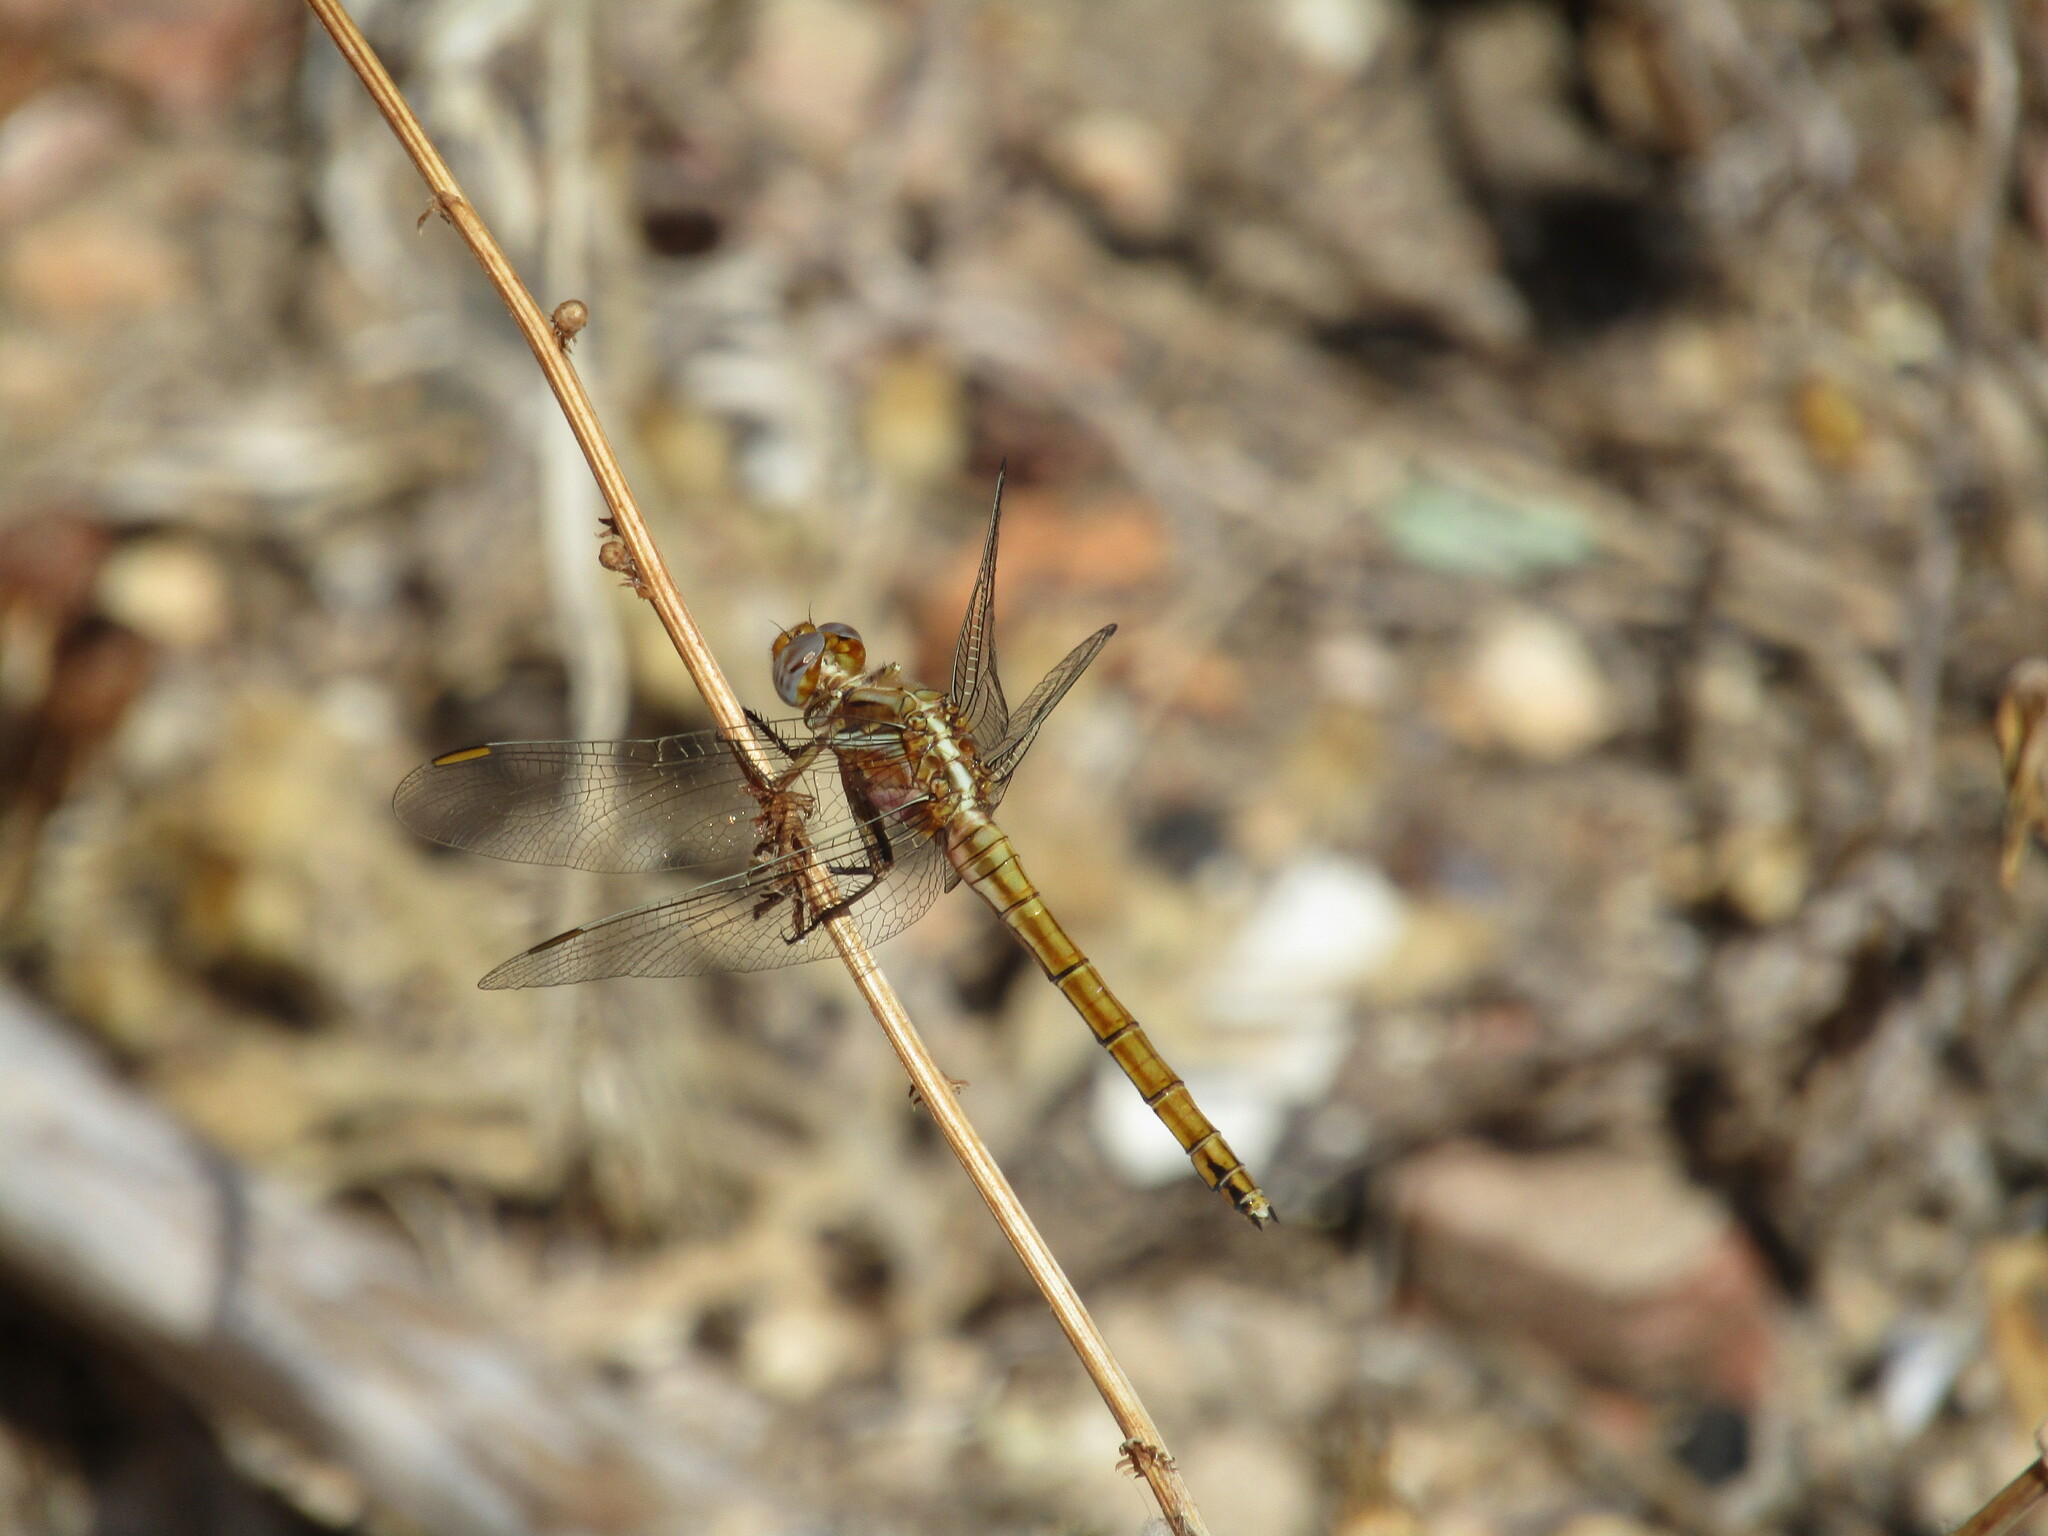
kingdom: Animalia
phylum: Arthropoda
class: Insecta
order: Odonata
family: Libellulidae
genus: Orthetrum
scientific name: Orthetrum chrysostigma
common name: Epaulet skimmer
